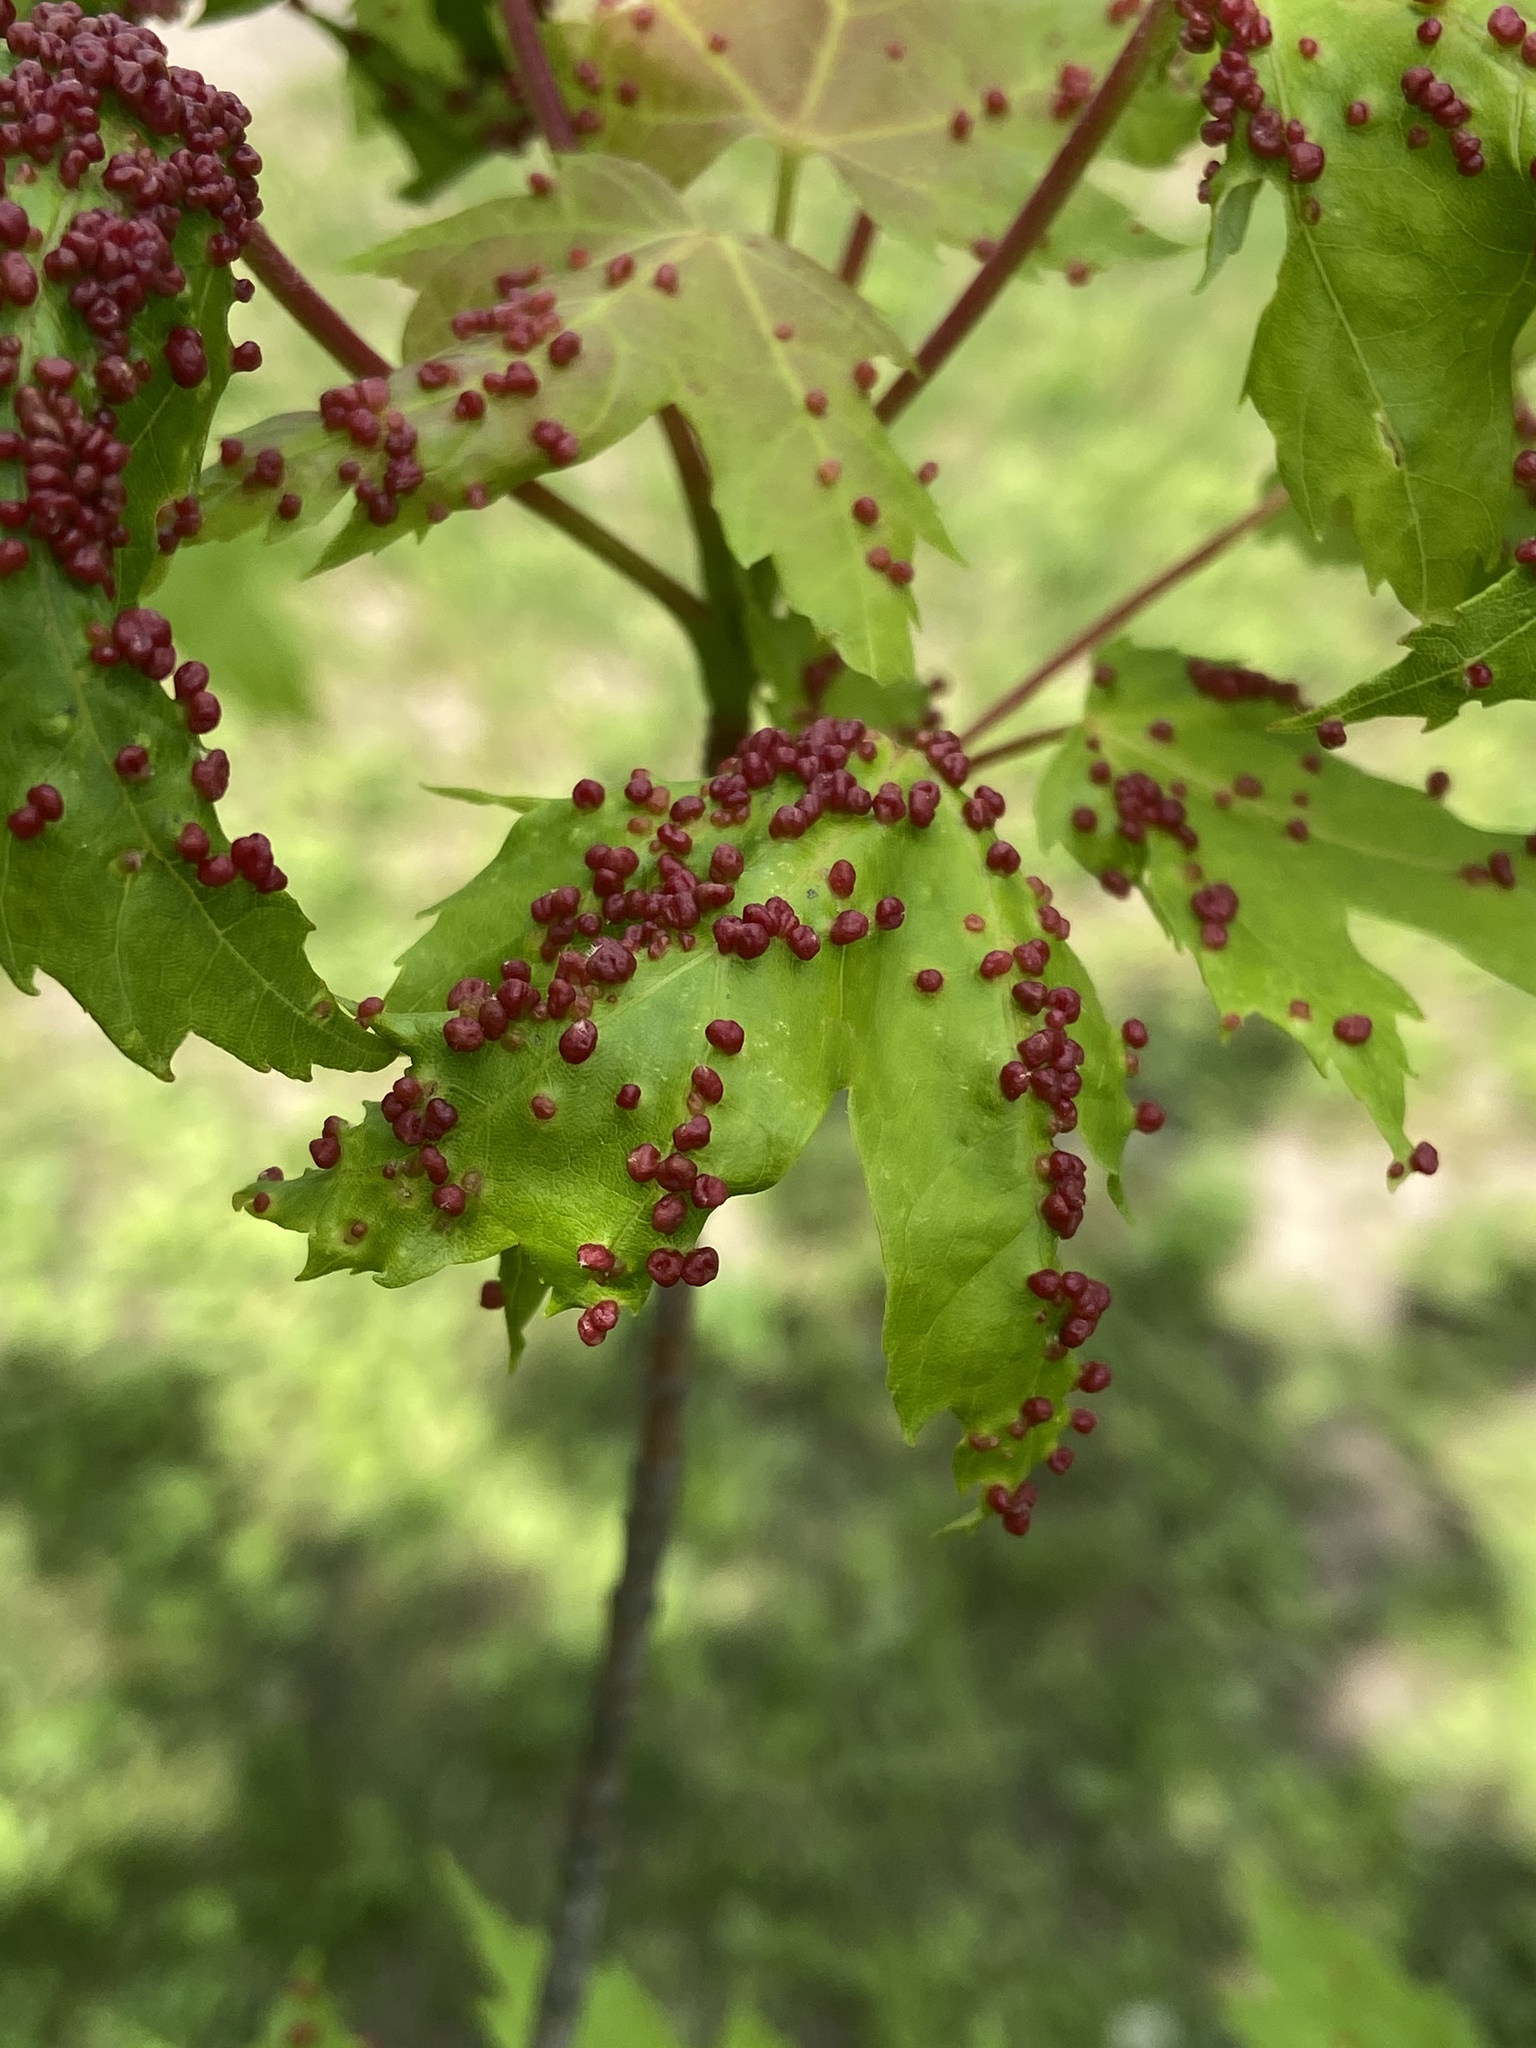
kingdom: Animalia
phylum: Arthropoda
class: Arachnida
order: Trombidiformes
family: Eriophyidae
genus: Vasates
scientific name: Vasates quadripedes
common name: Maple bladder gall mite
